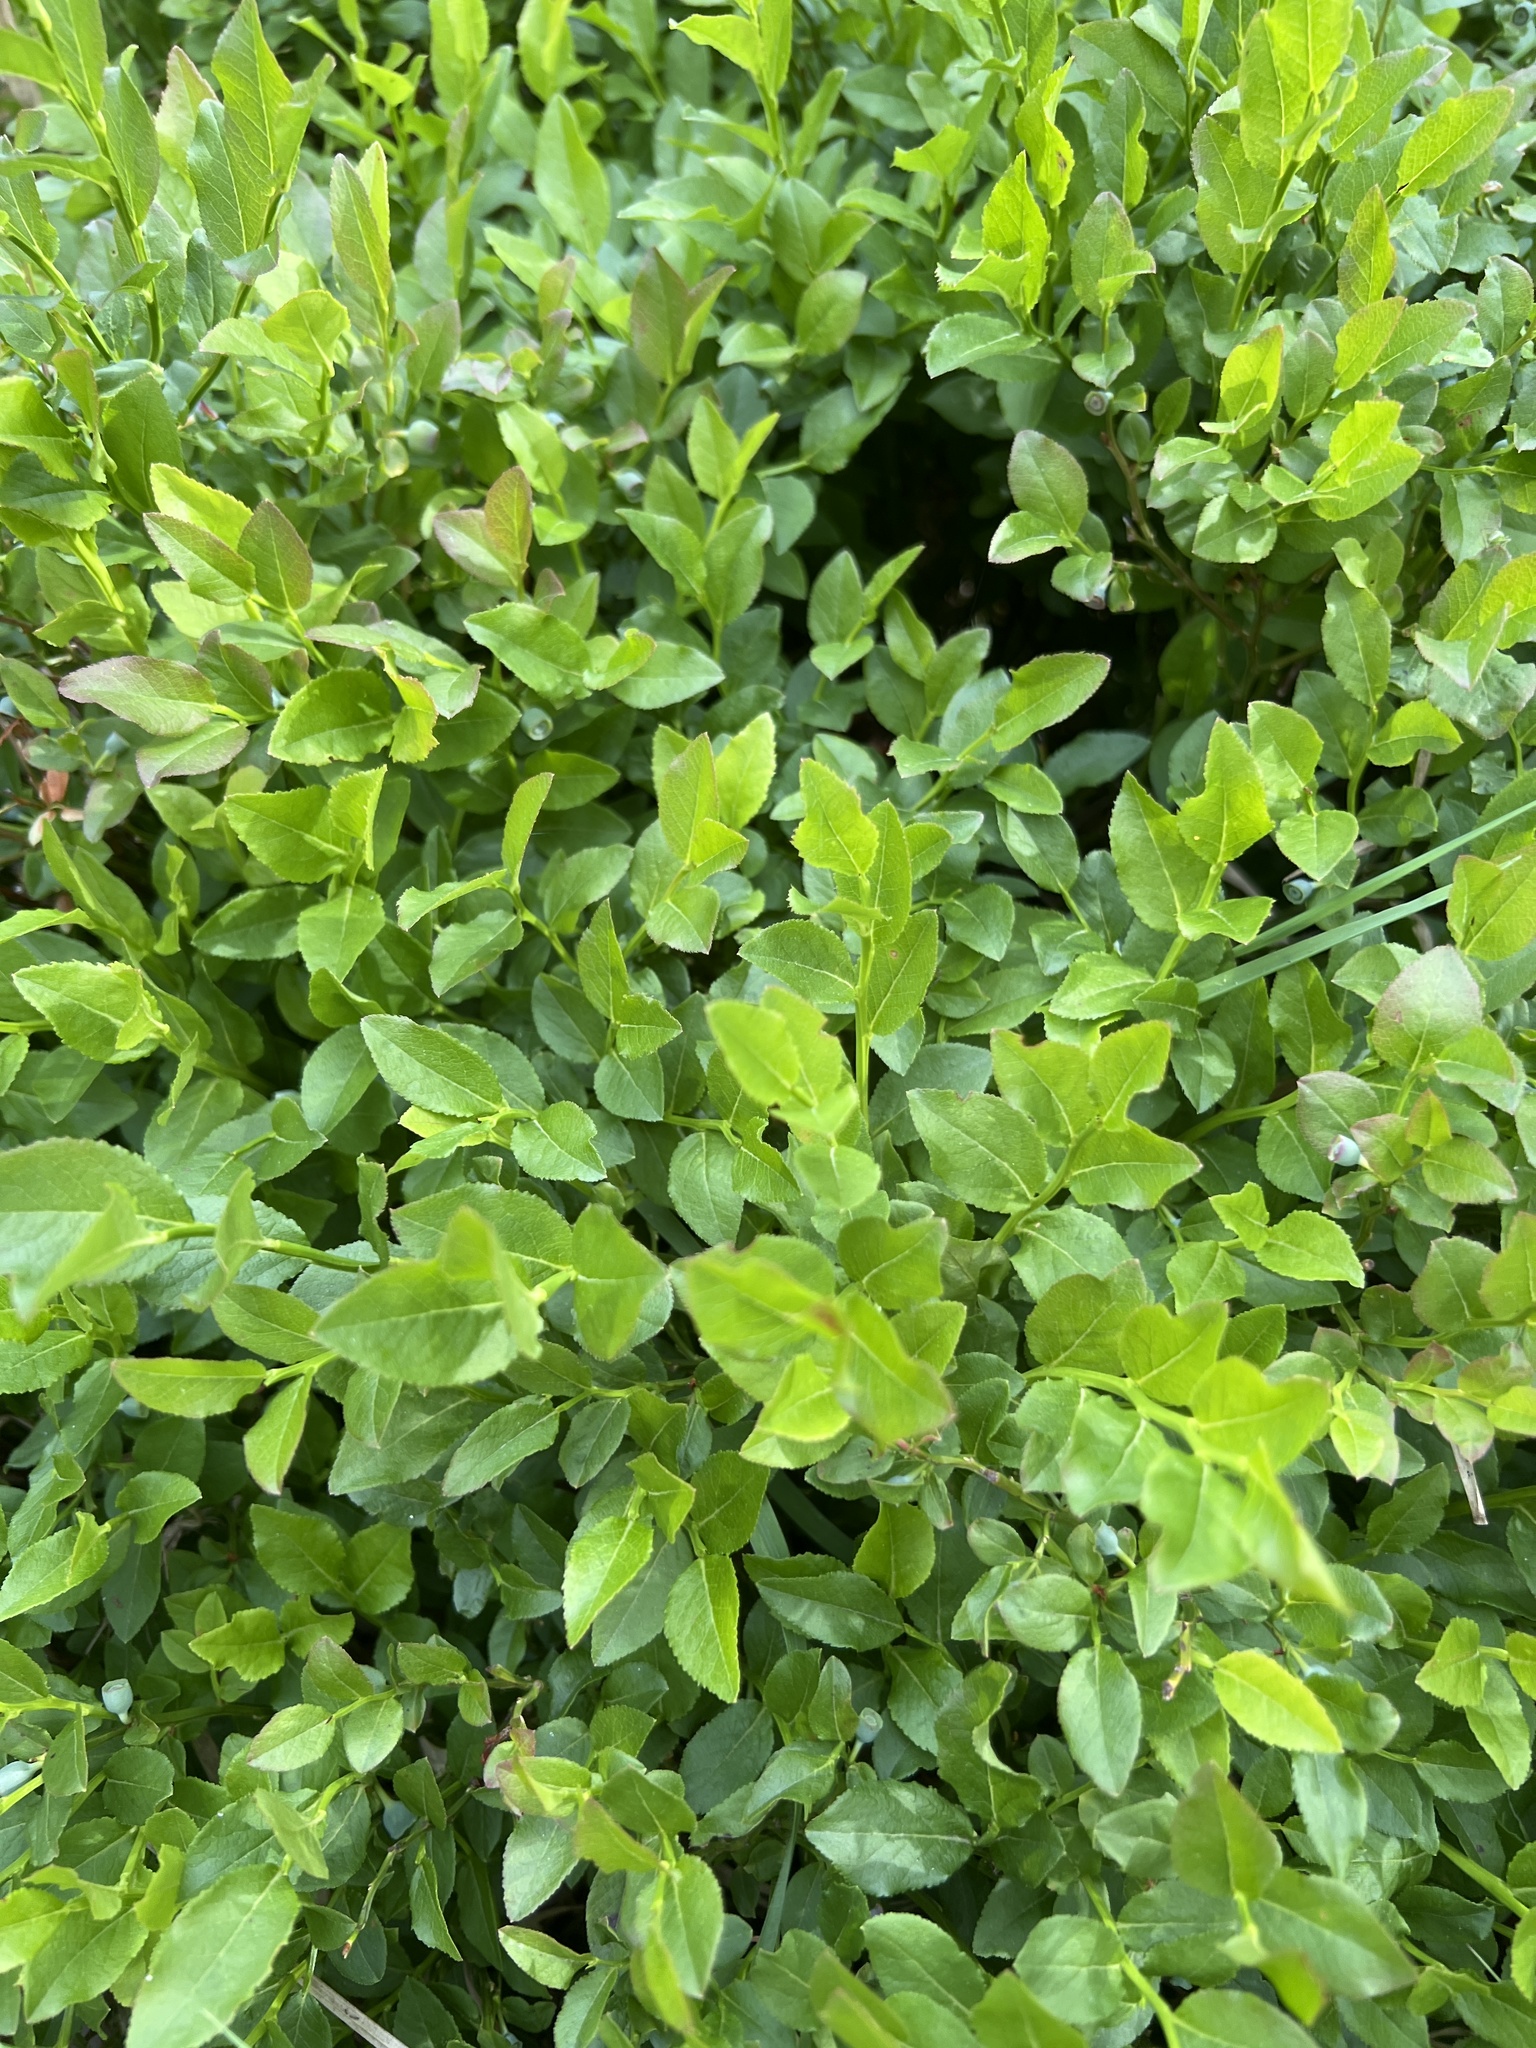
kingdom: Plantae
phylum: Tracheophyta
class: Magnoliopsida
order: Ericales
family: Ericaceae
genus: Vaccinium
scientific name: Vaccinium myrtillus
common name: Bilberry
